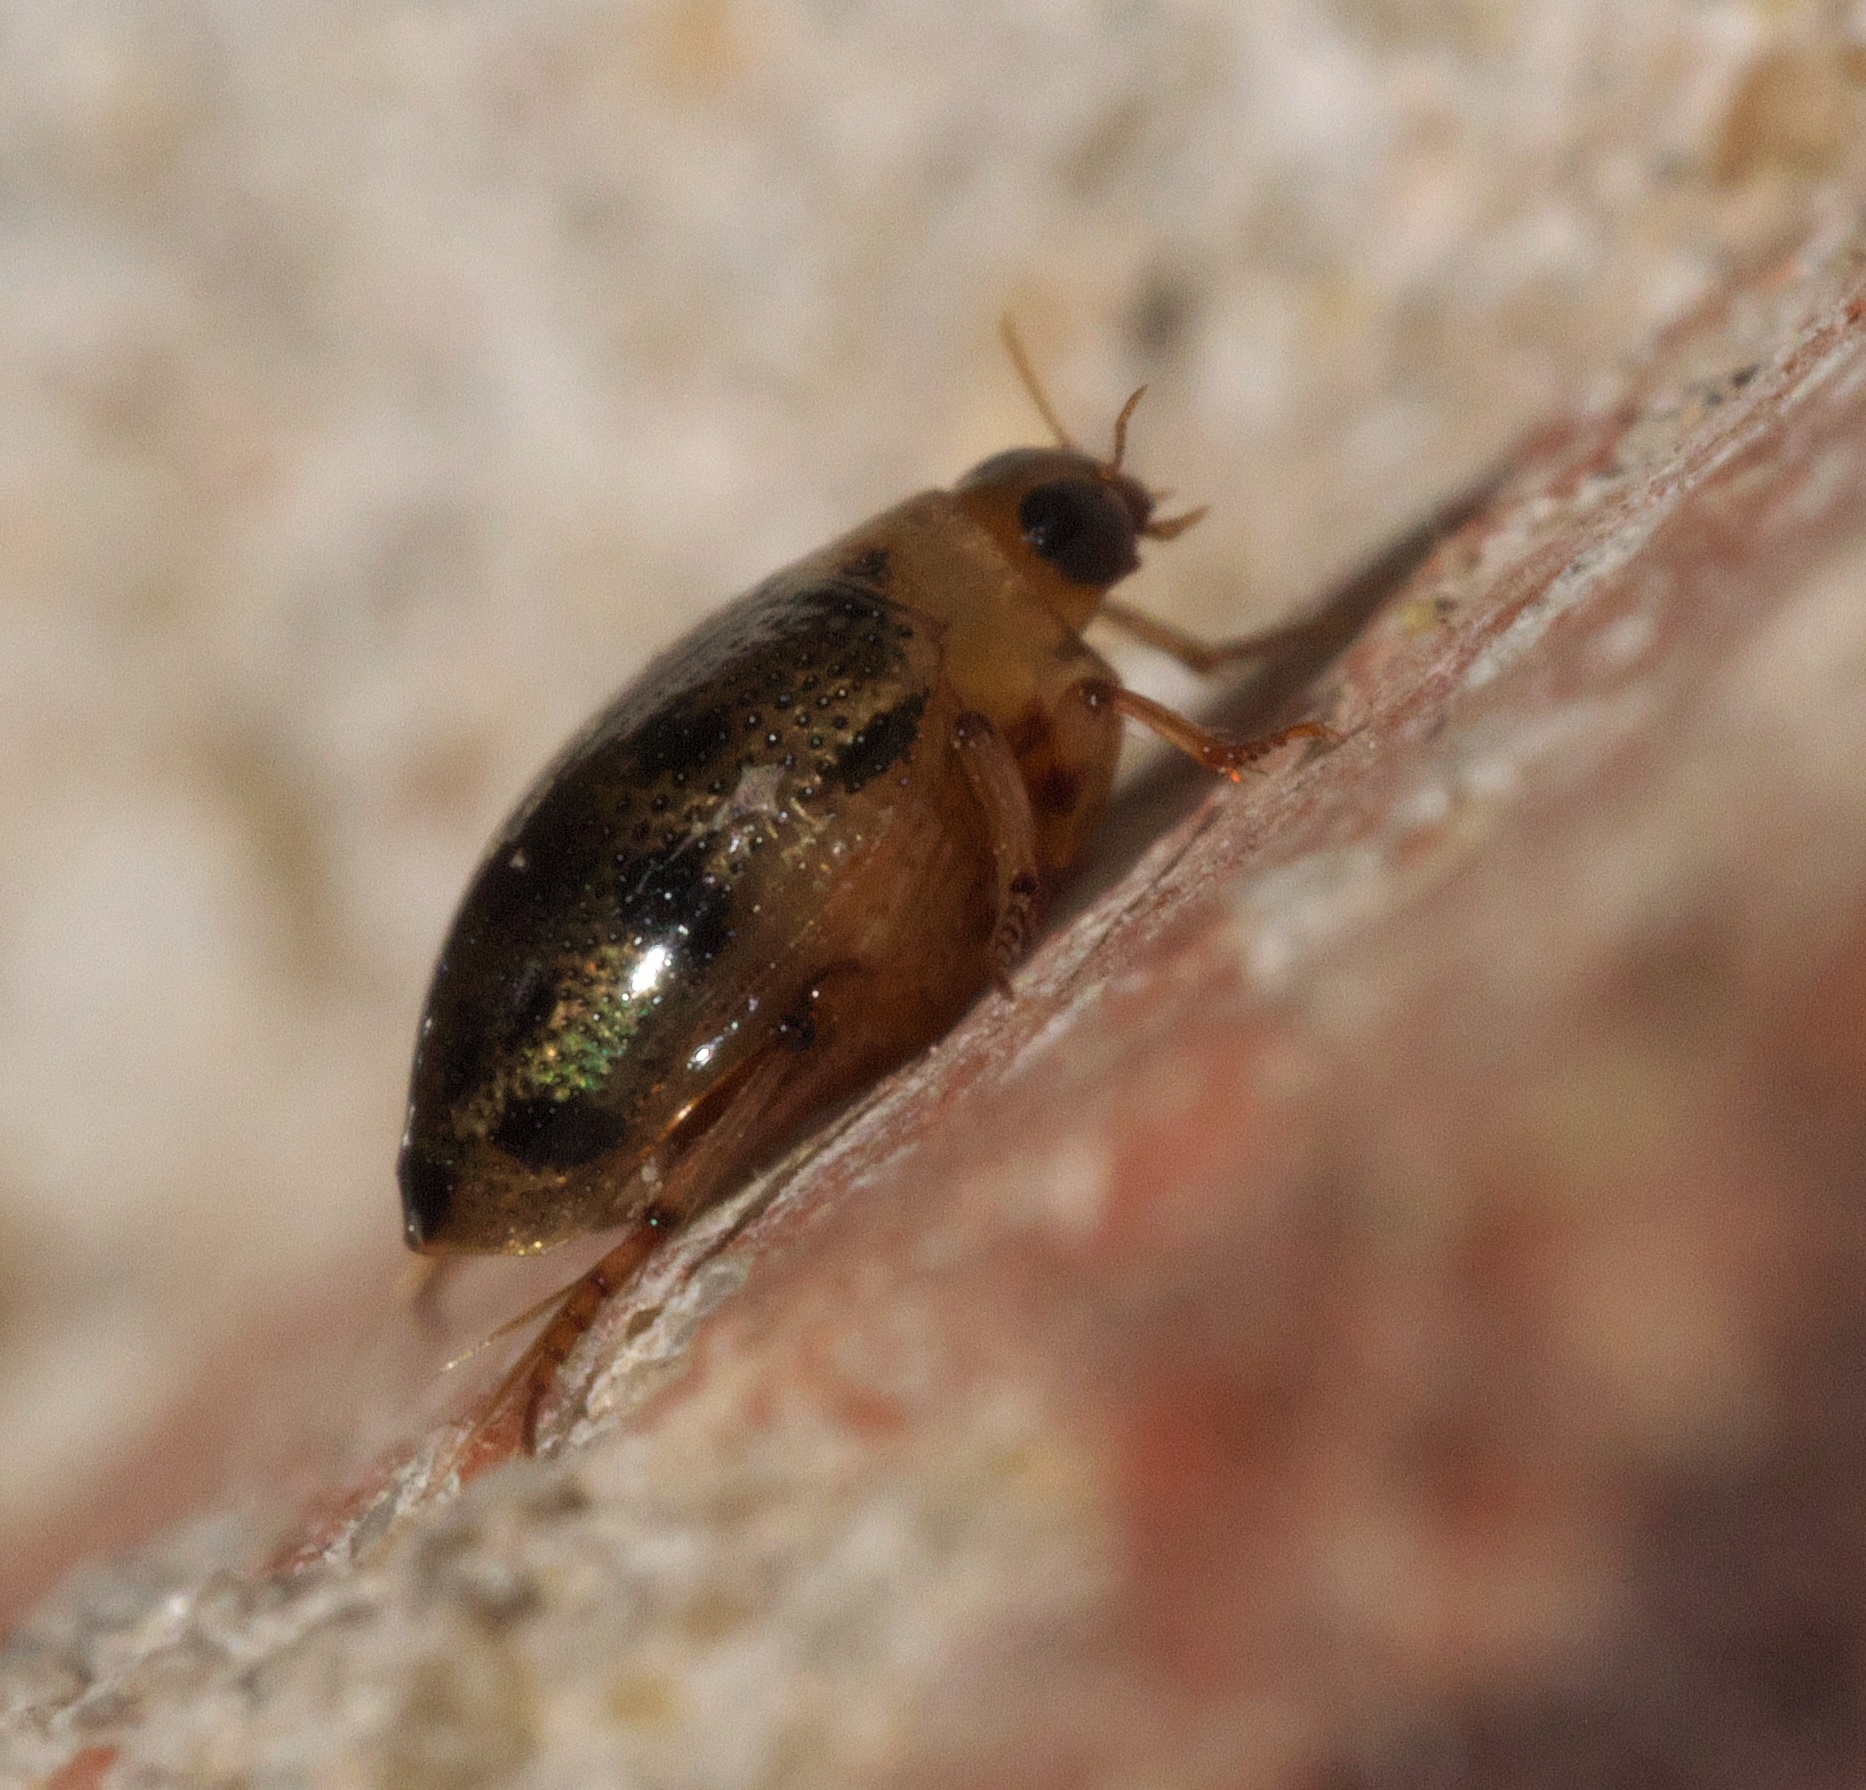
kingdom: Animalia
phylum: Arthropoda
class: Insecta
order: Coleoptera
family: Haliplidae
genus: Peltodytes
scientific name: Peltodytes
